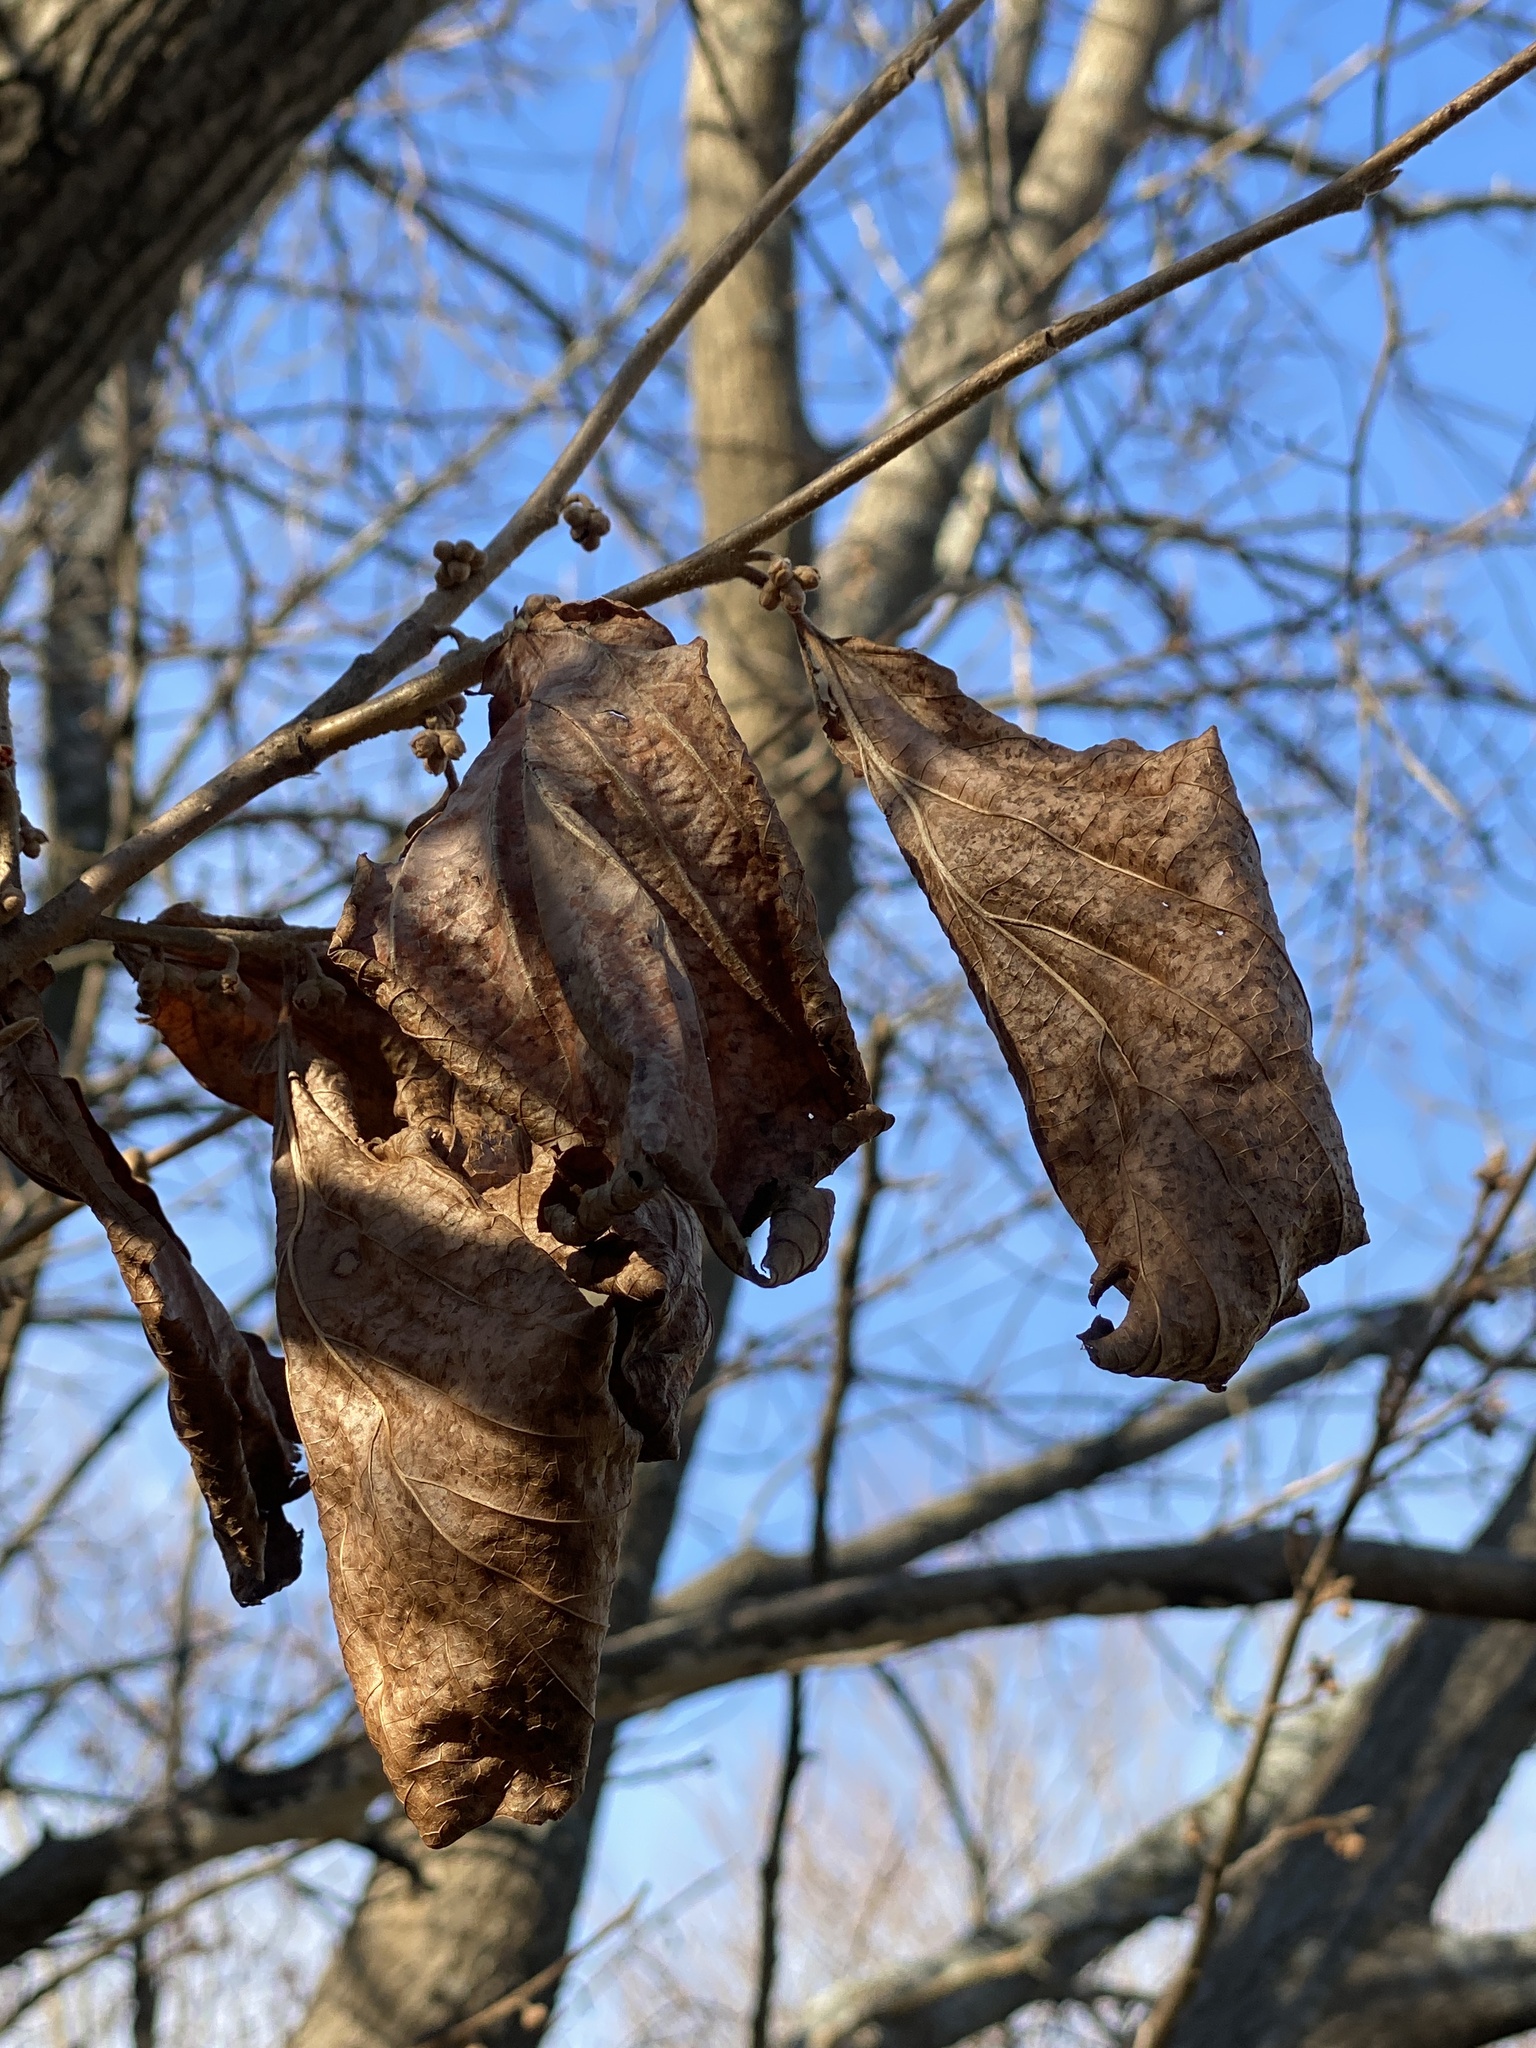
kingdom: Plantae
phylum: Tracheophyta
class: Magnoliopsida
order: Saxifragales
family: Hamamelidaceae
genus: Hamamelis
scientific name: Hamamelis virginiana
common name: Witch-hazel
